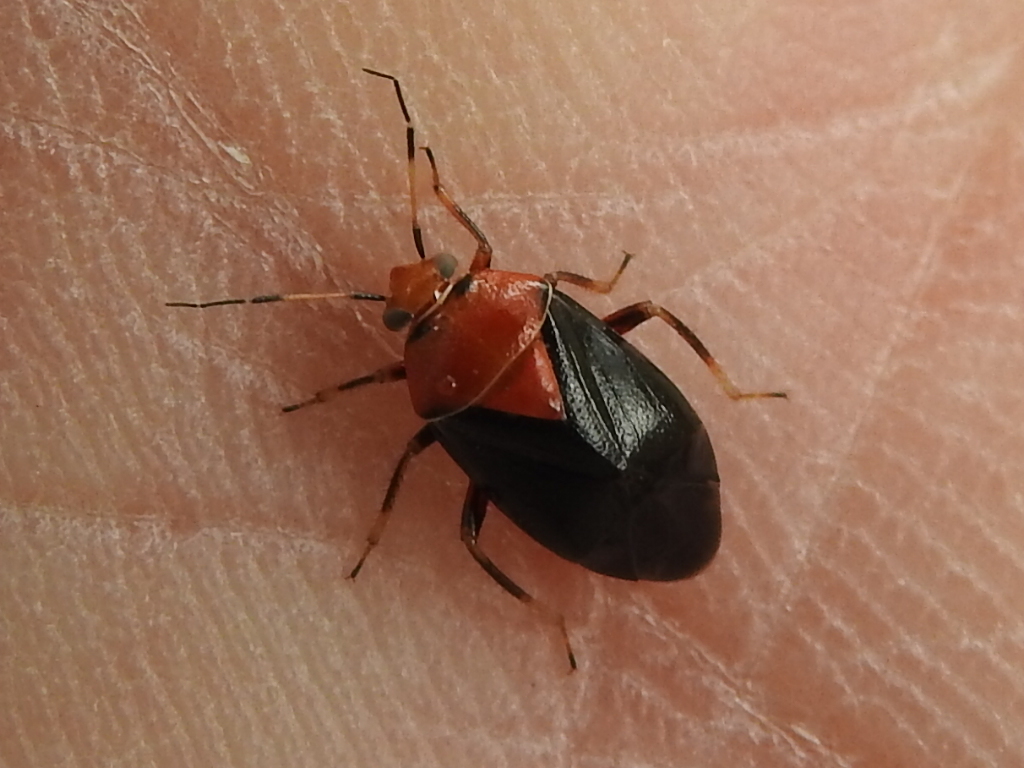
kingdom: Animalia
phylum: Arthropoda
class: Insecta
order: Hemiptera
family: Miridae
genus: Neocapsus
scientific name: Neocapsus cuneatus
